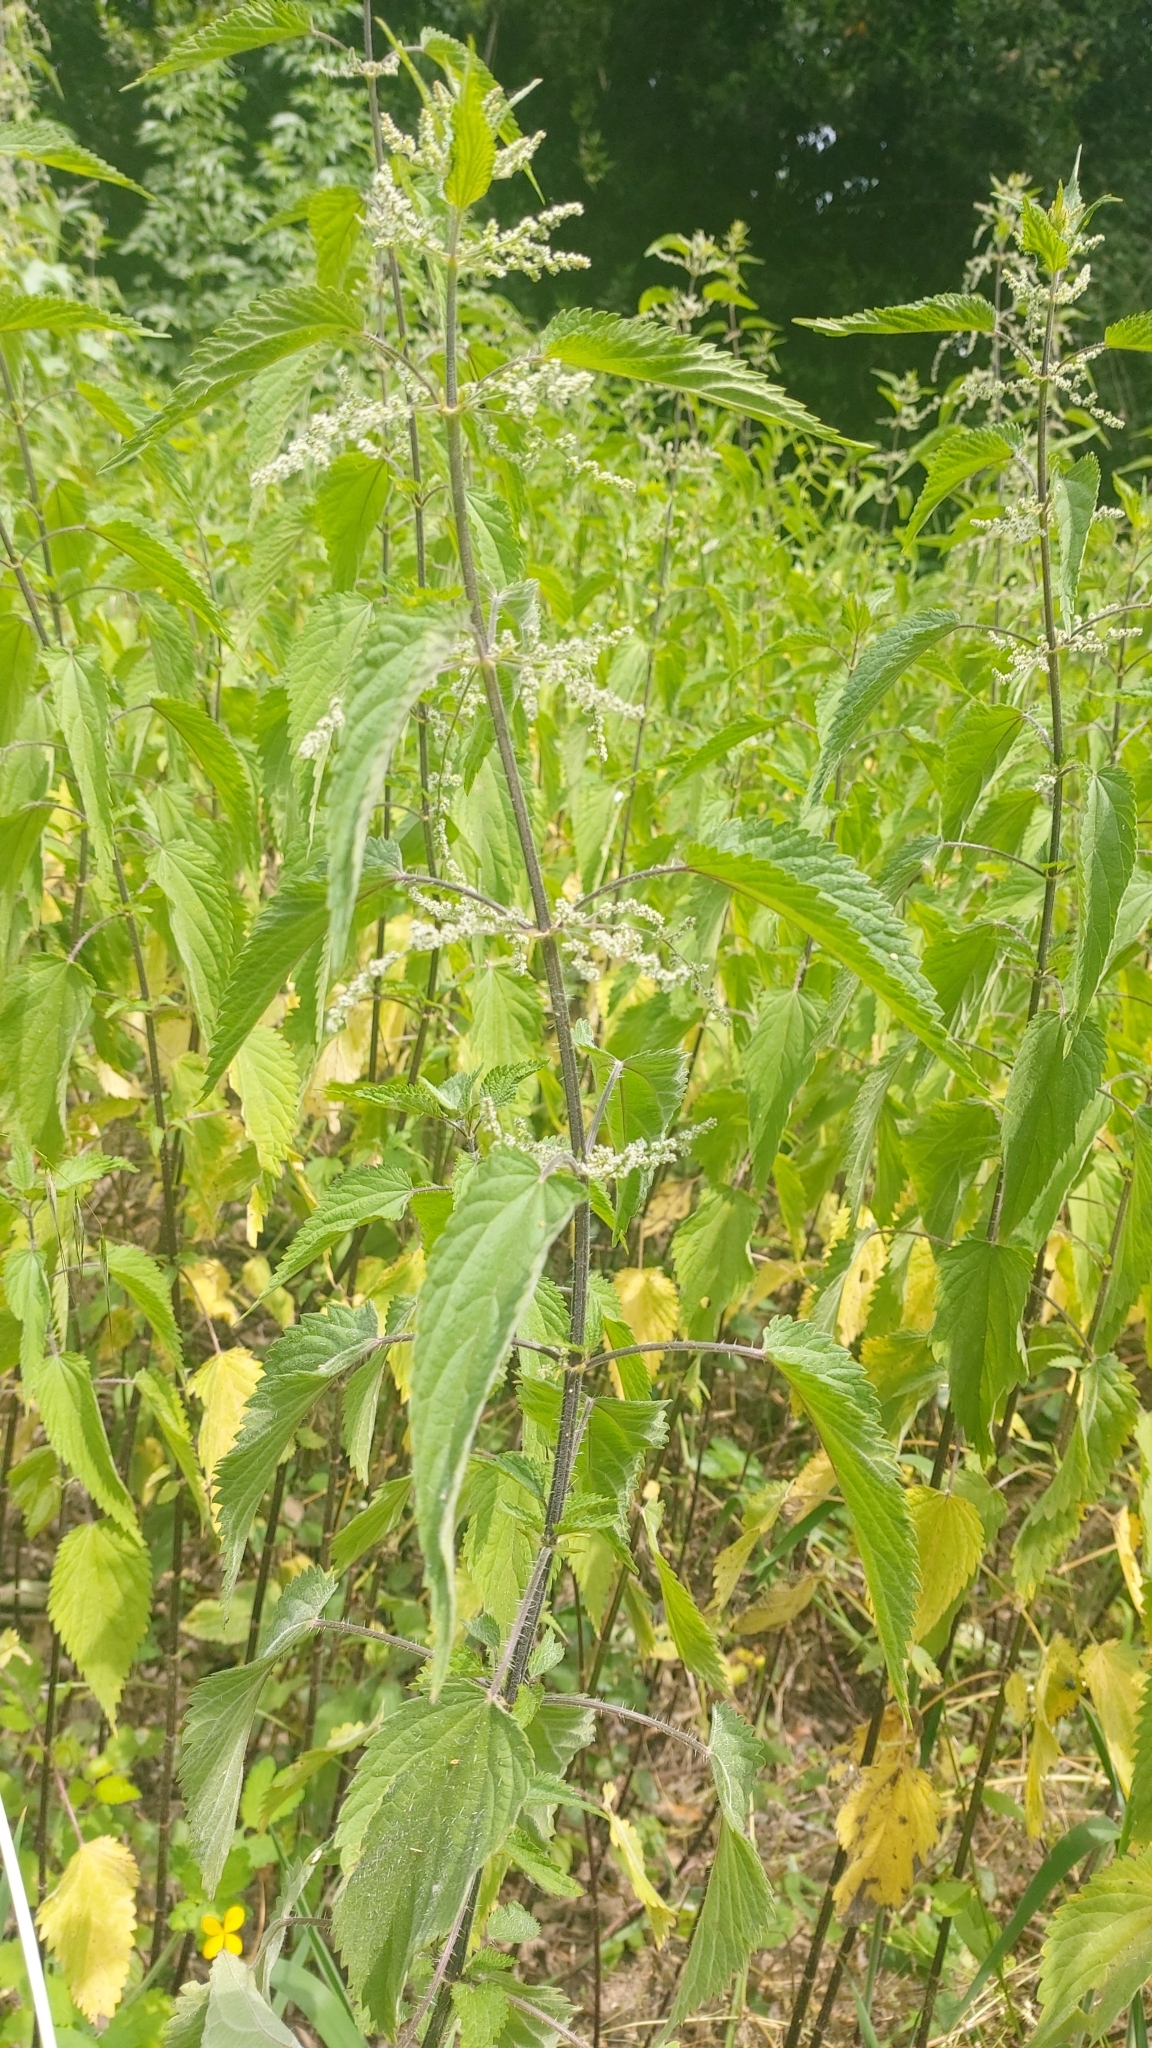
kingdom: Plantae
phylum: Tracheophyta
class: Magnoliopsida
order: Rosales
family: Urticaceae
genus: Urtica
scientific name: Urtica dioica
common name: Common nettle
